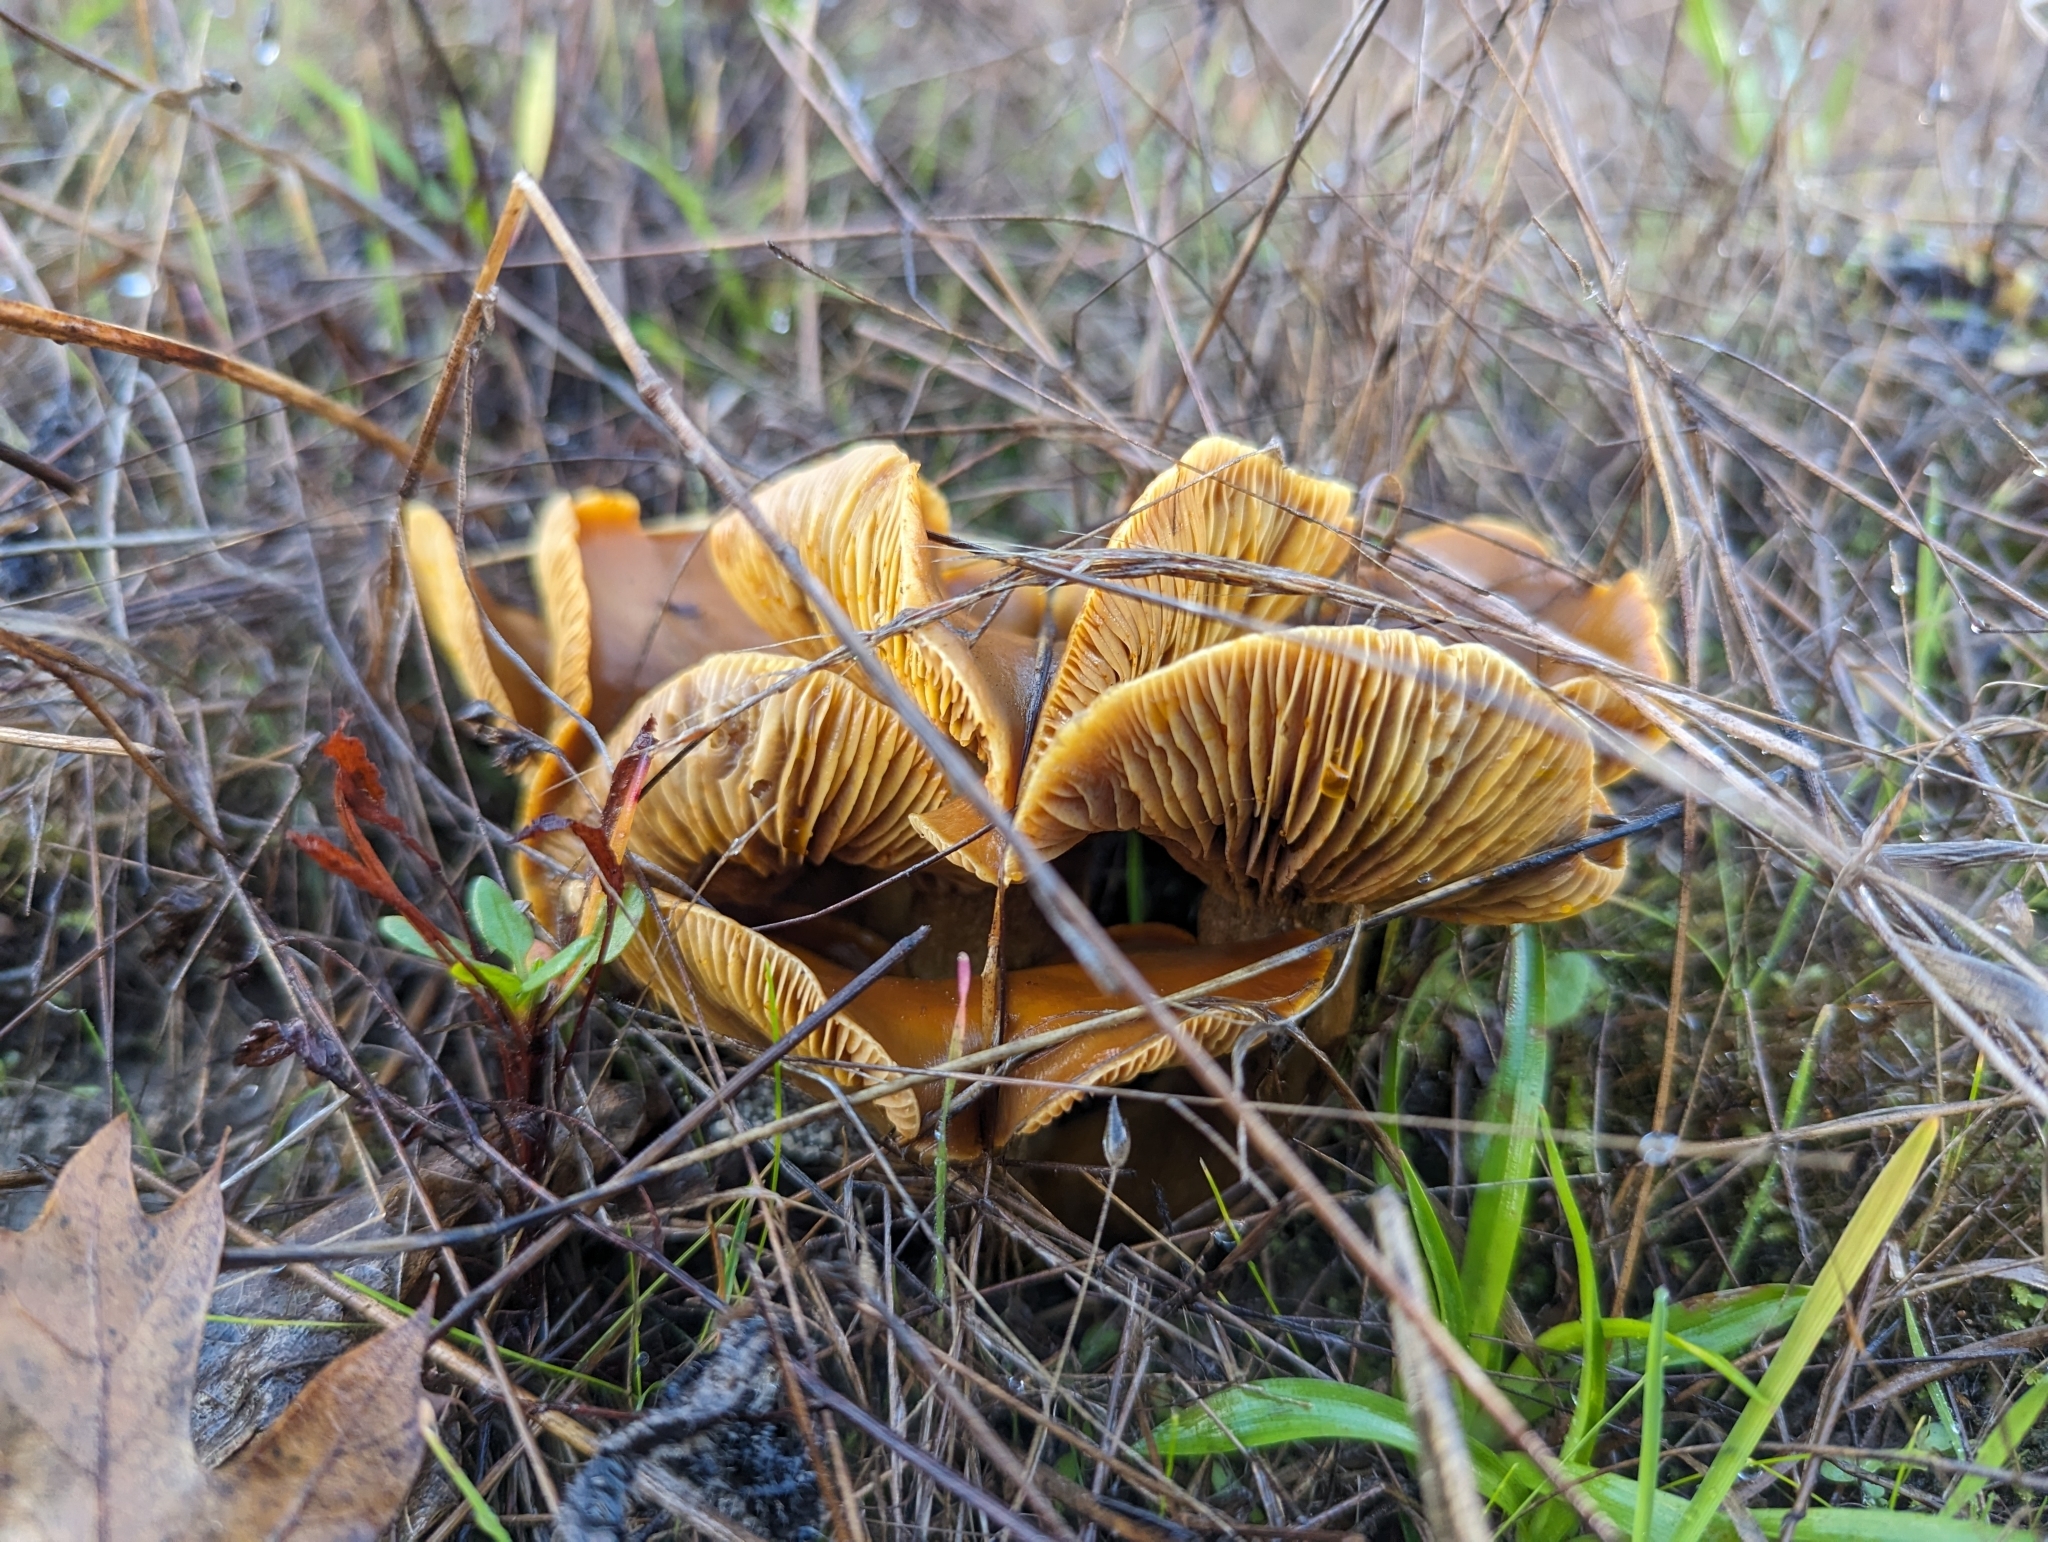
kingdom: Fungi
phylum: Basidiomycota
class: Agaricomycetes
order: Agaricales
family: Omphalotaceae
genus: Omphalotus
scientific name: Omphalotus olivascens
